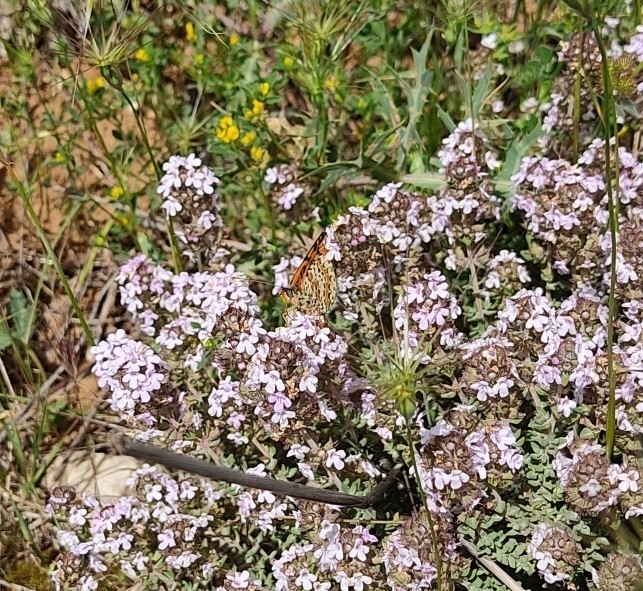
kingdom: Animalia
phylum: Arthropoda
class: Insecta
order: Lepidoptera
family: Nymphalidae
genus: Melitaea
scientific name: Melitaea didyma
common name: Spotted fritillary
